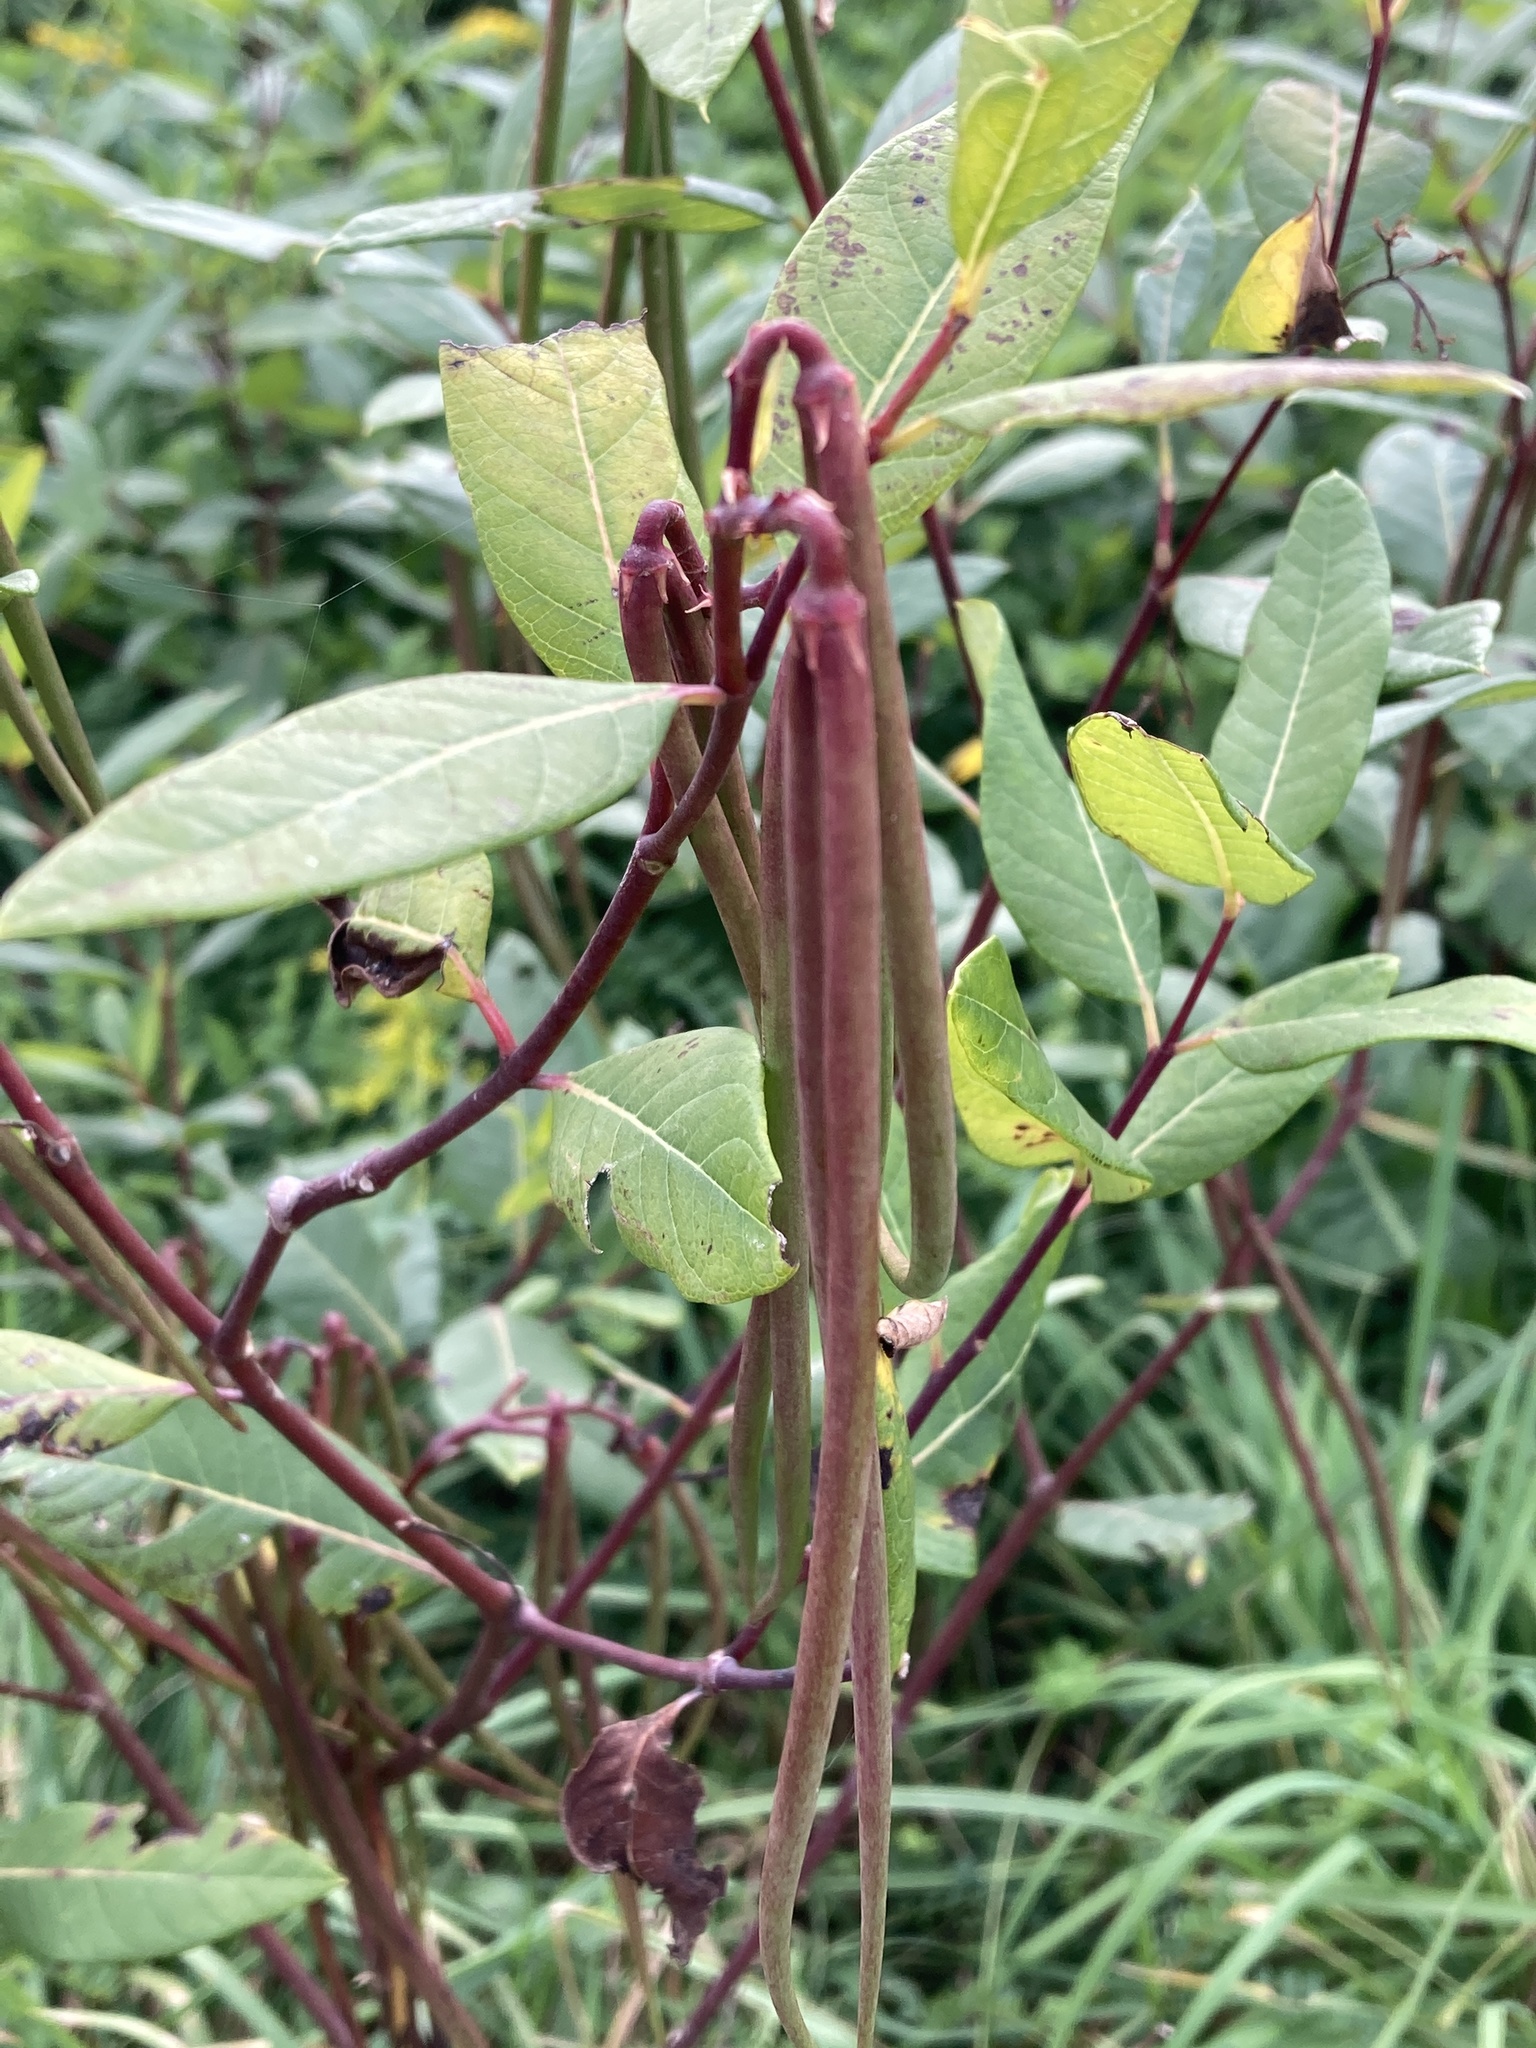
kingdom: Plantae
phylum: Tracheophyta
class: Magnoliopsida
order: Gentianales
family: Apocynaceae
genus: Apocynum
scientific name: Apocynum cannabinum
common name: Hemp dogbane
